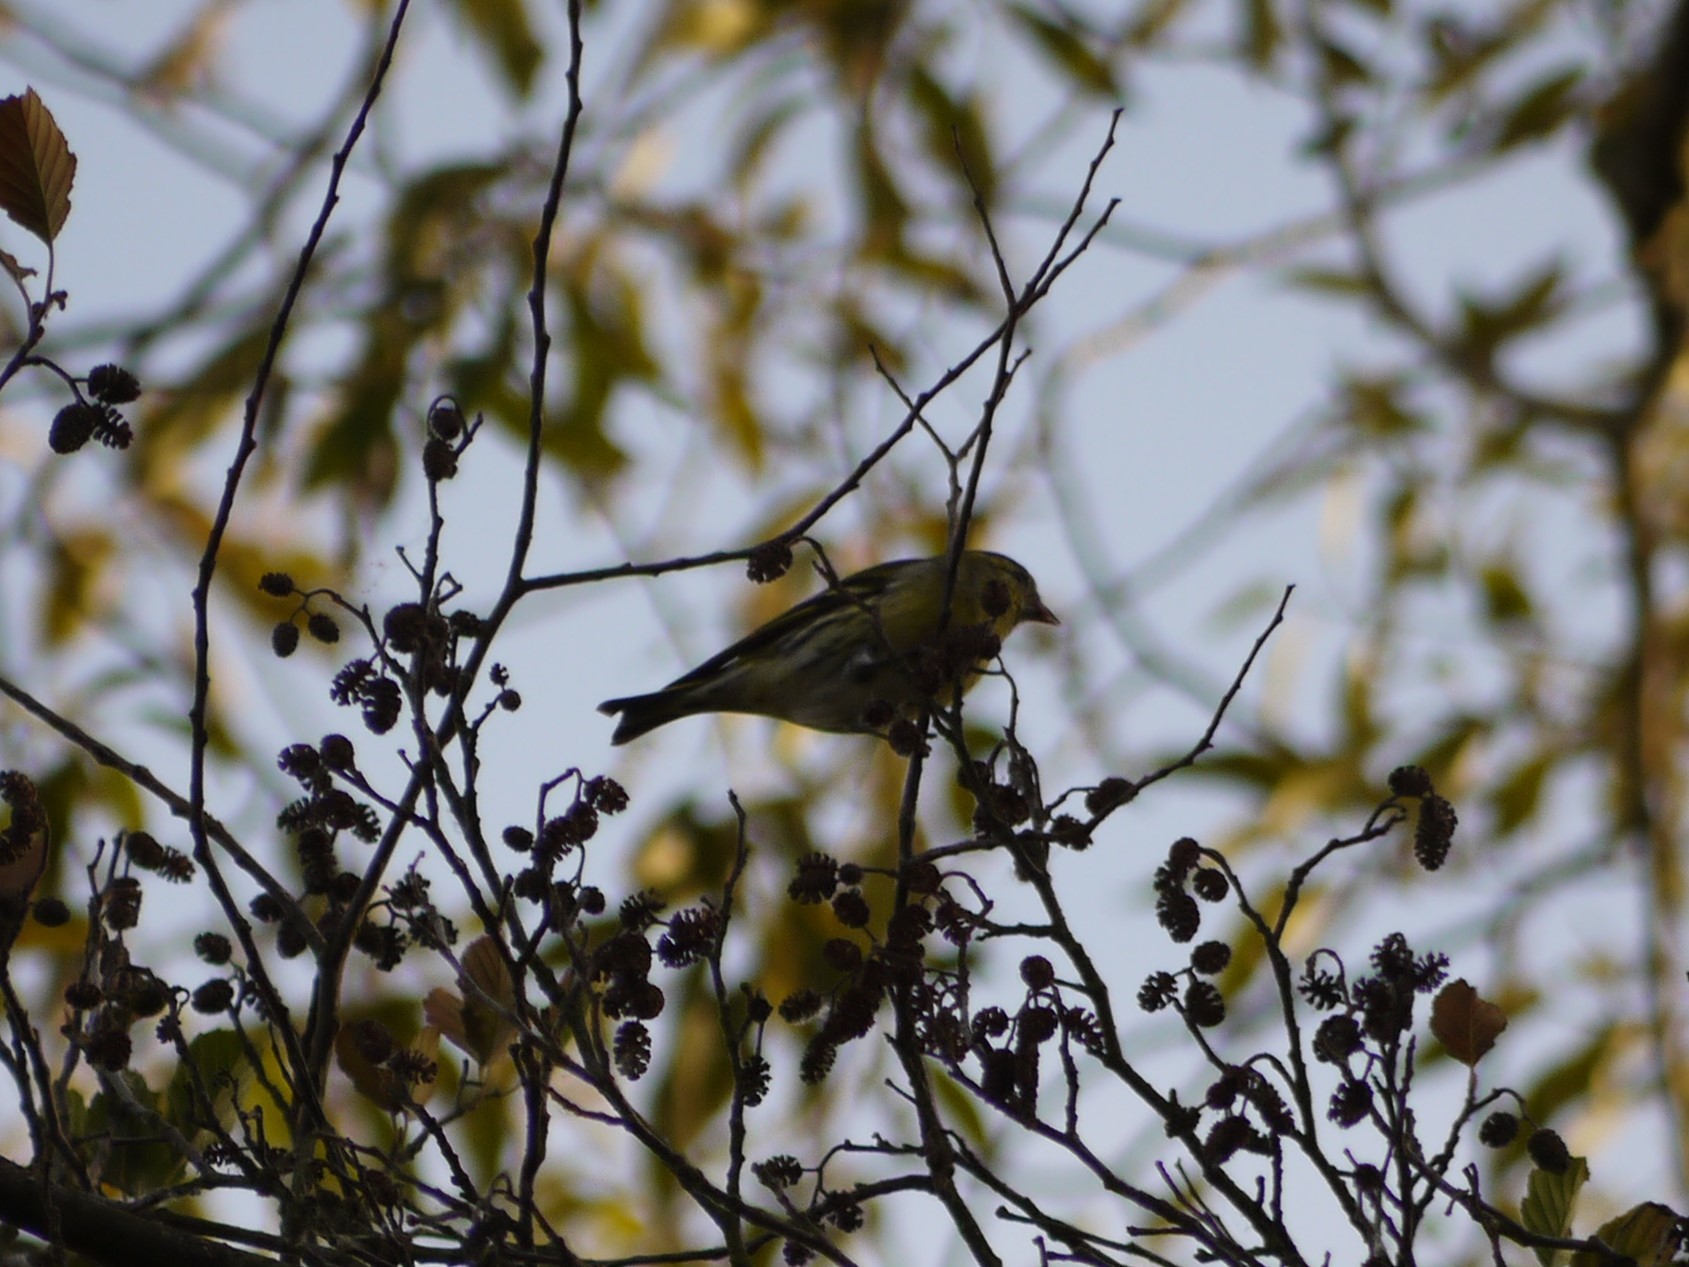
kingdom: Animalia
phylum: Chordata
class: Aves
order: Passeriformes
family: Fringillidae
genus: Spinus
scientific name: Spinus spinus
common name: Eurasian siskin
